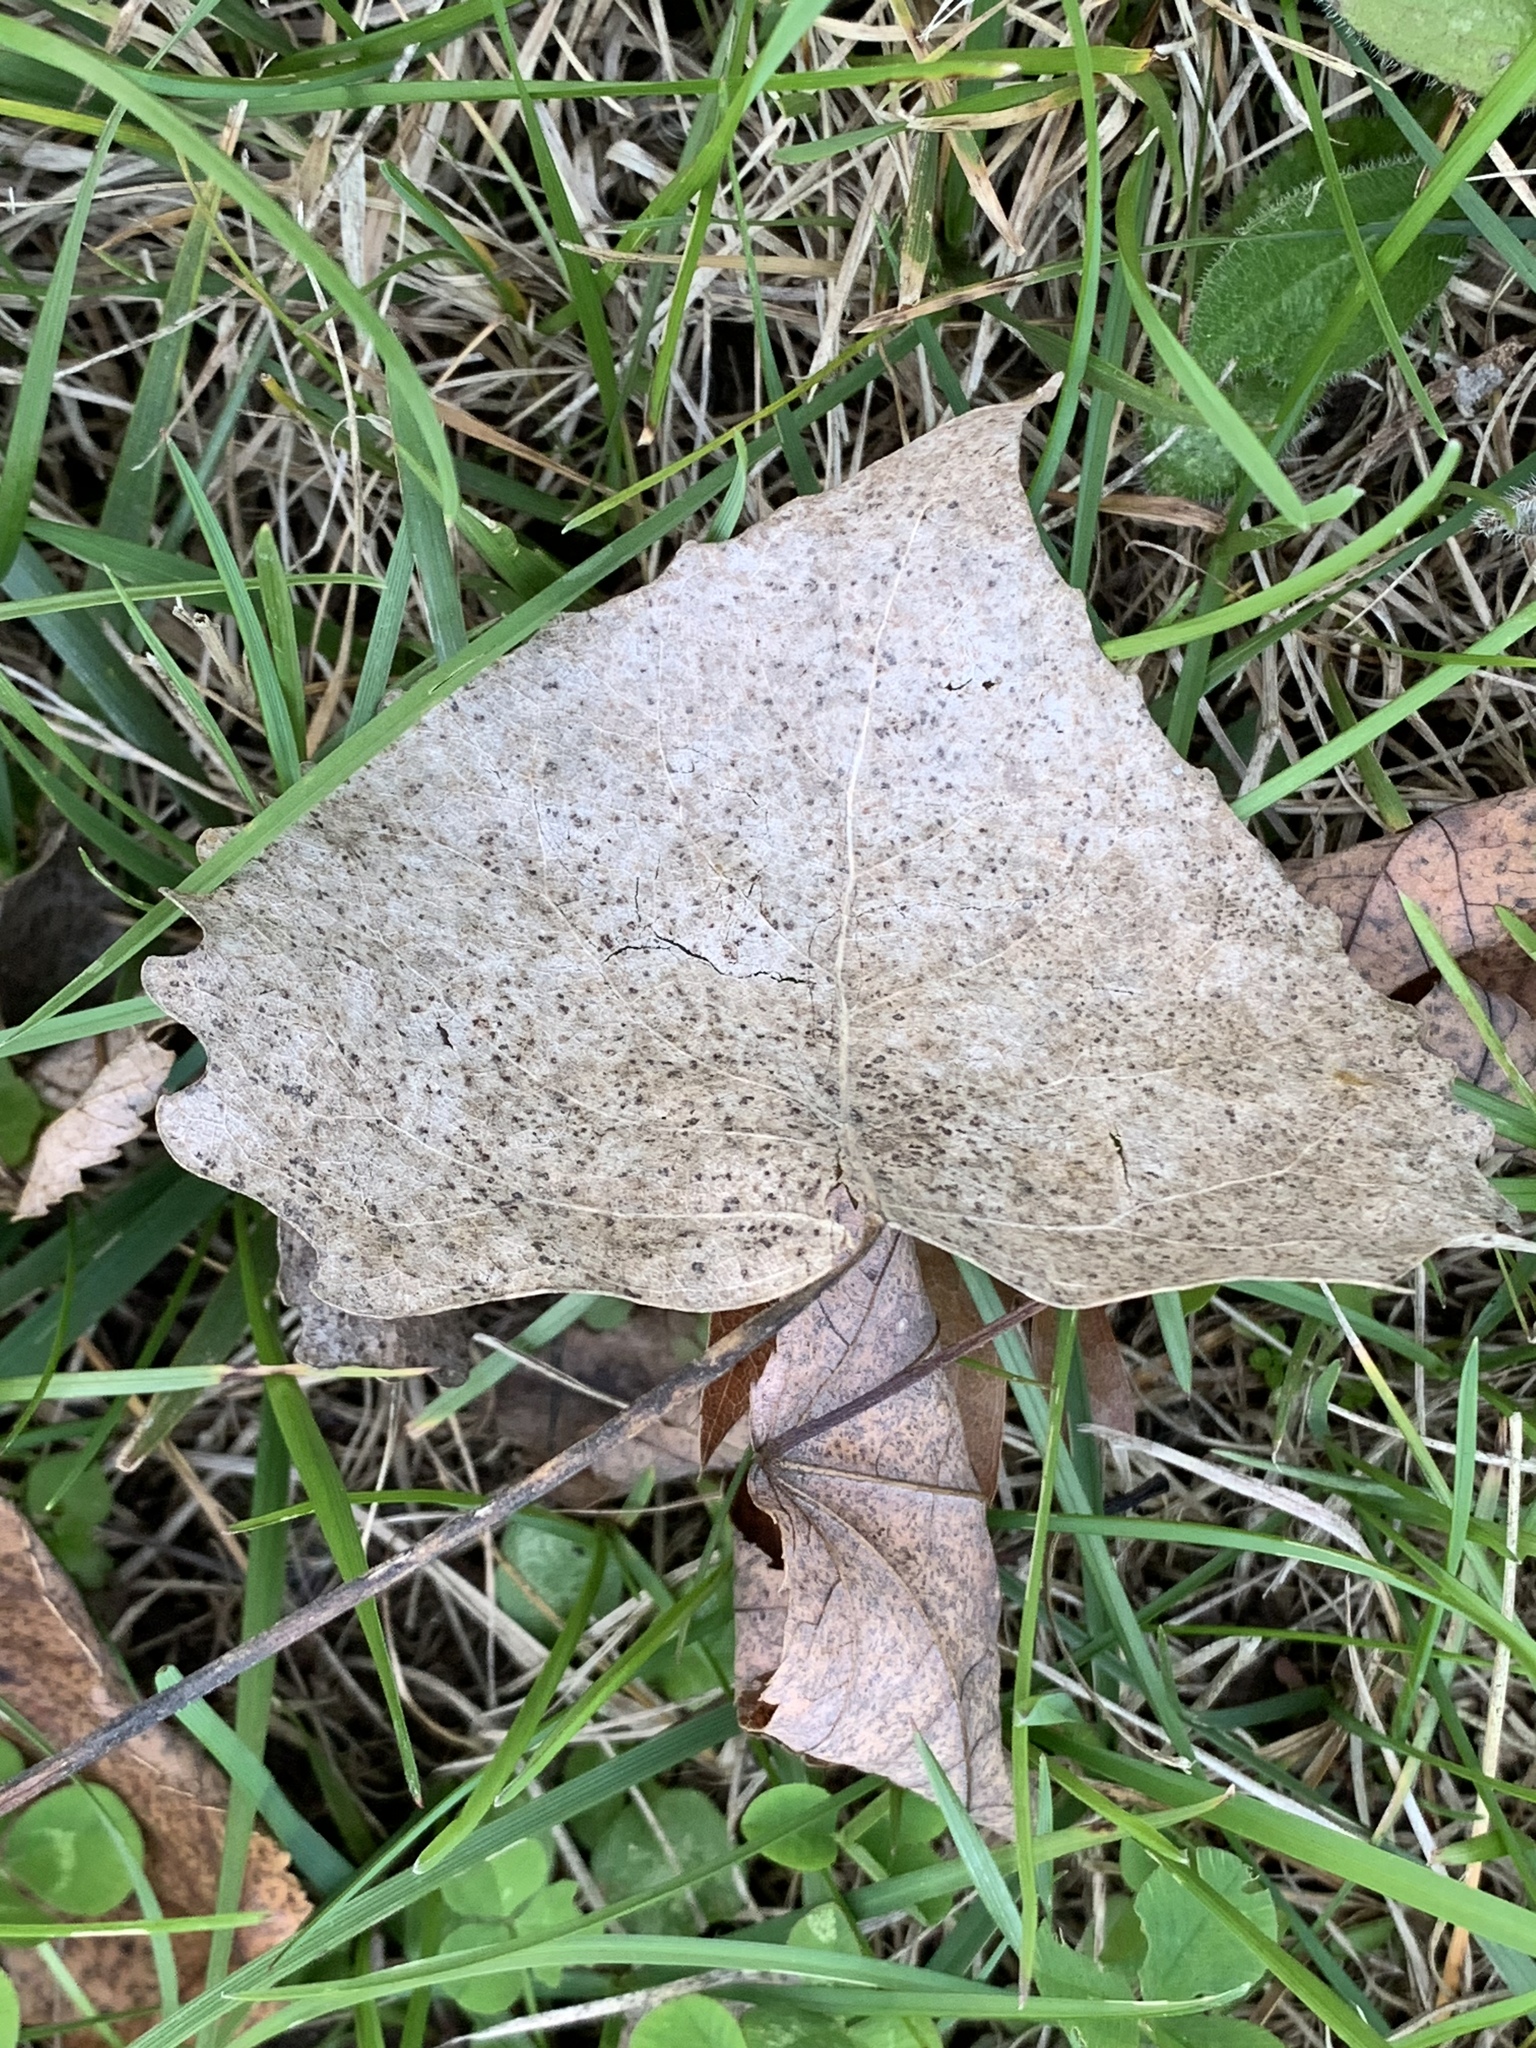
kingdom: Plantae
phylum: Tracheophyta
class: Magnoliopsida
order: Malpighiales
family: Salicaceae
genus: Populus
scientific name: Populus deltoides
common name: Eastern cottonwood
